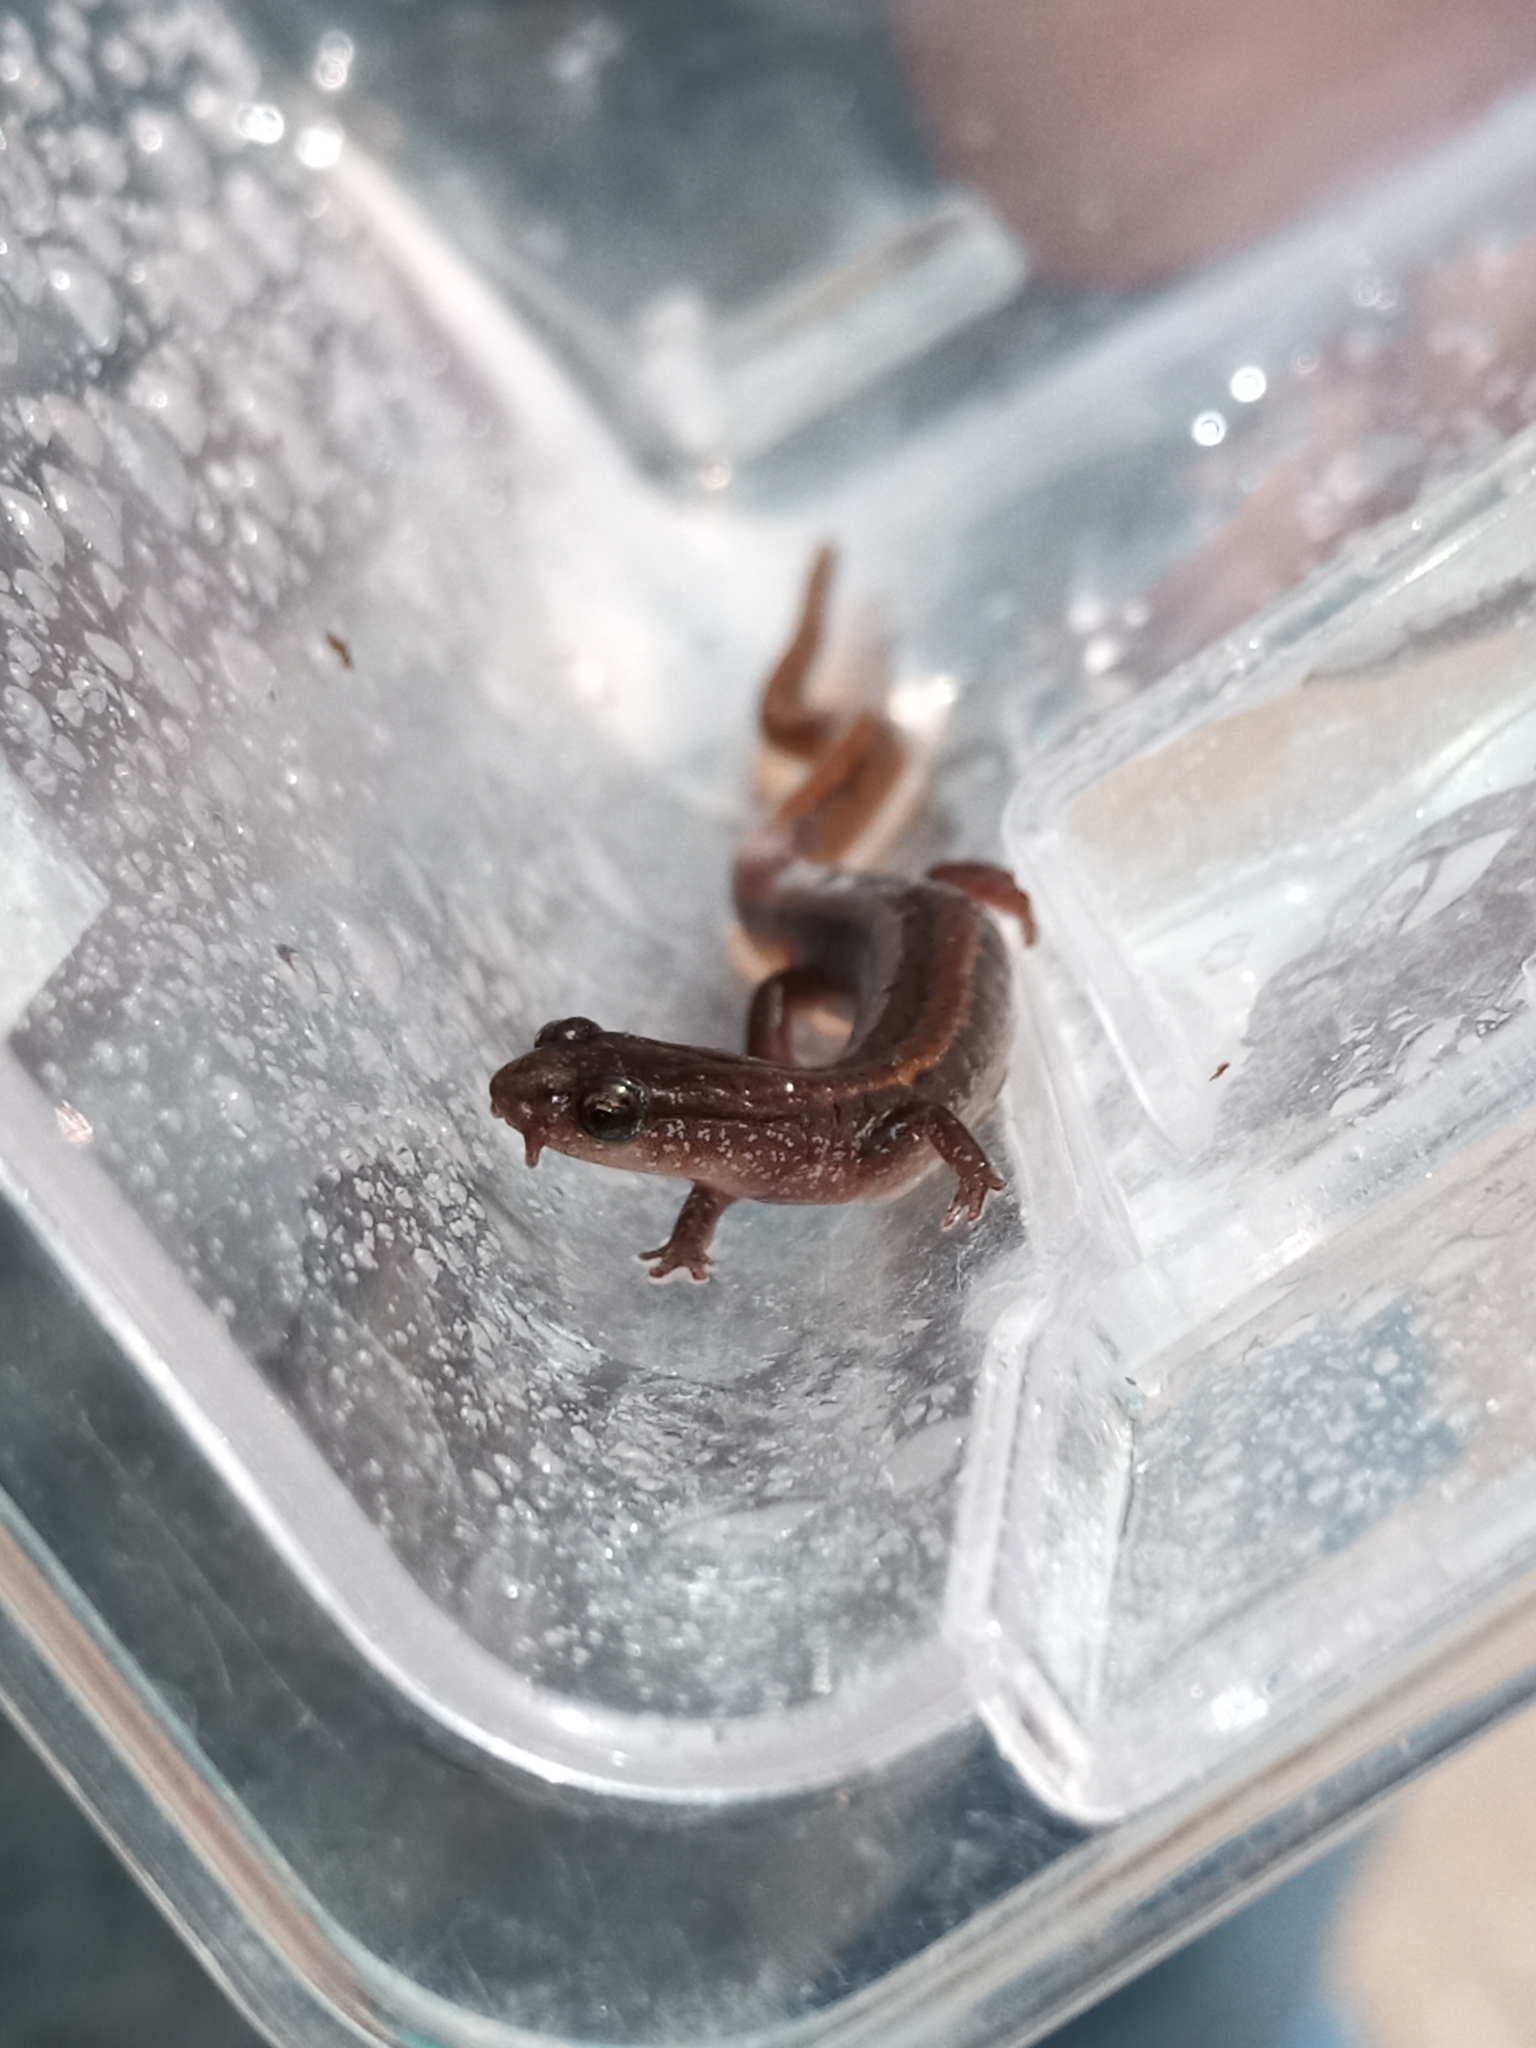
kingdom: Animalia
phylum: Chordata
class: Amphibia
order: Caudata
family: Plethodontidae
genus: Eurycea
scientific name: Eurycea paludicola
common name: Western dwarf salamander
